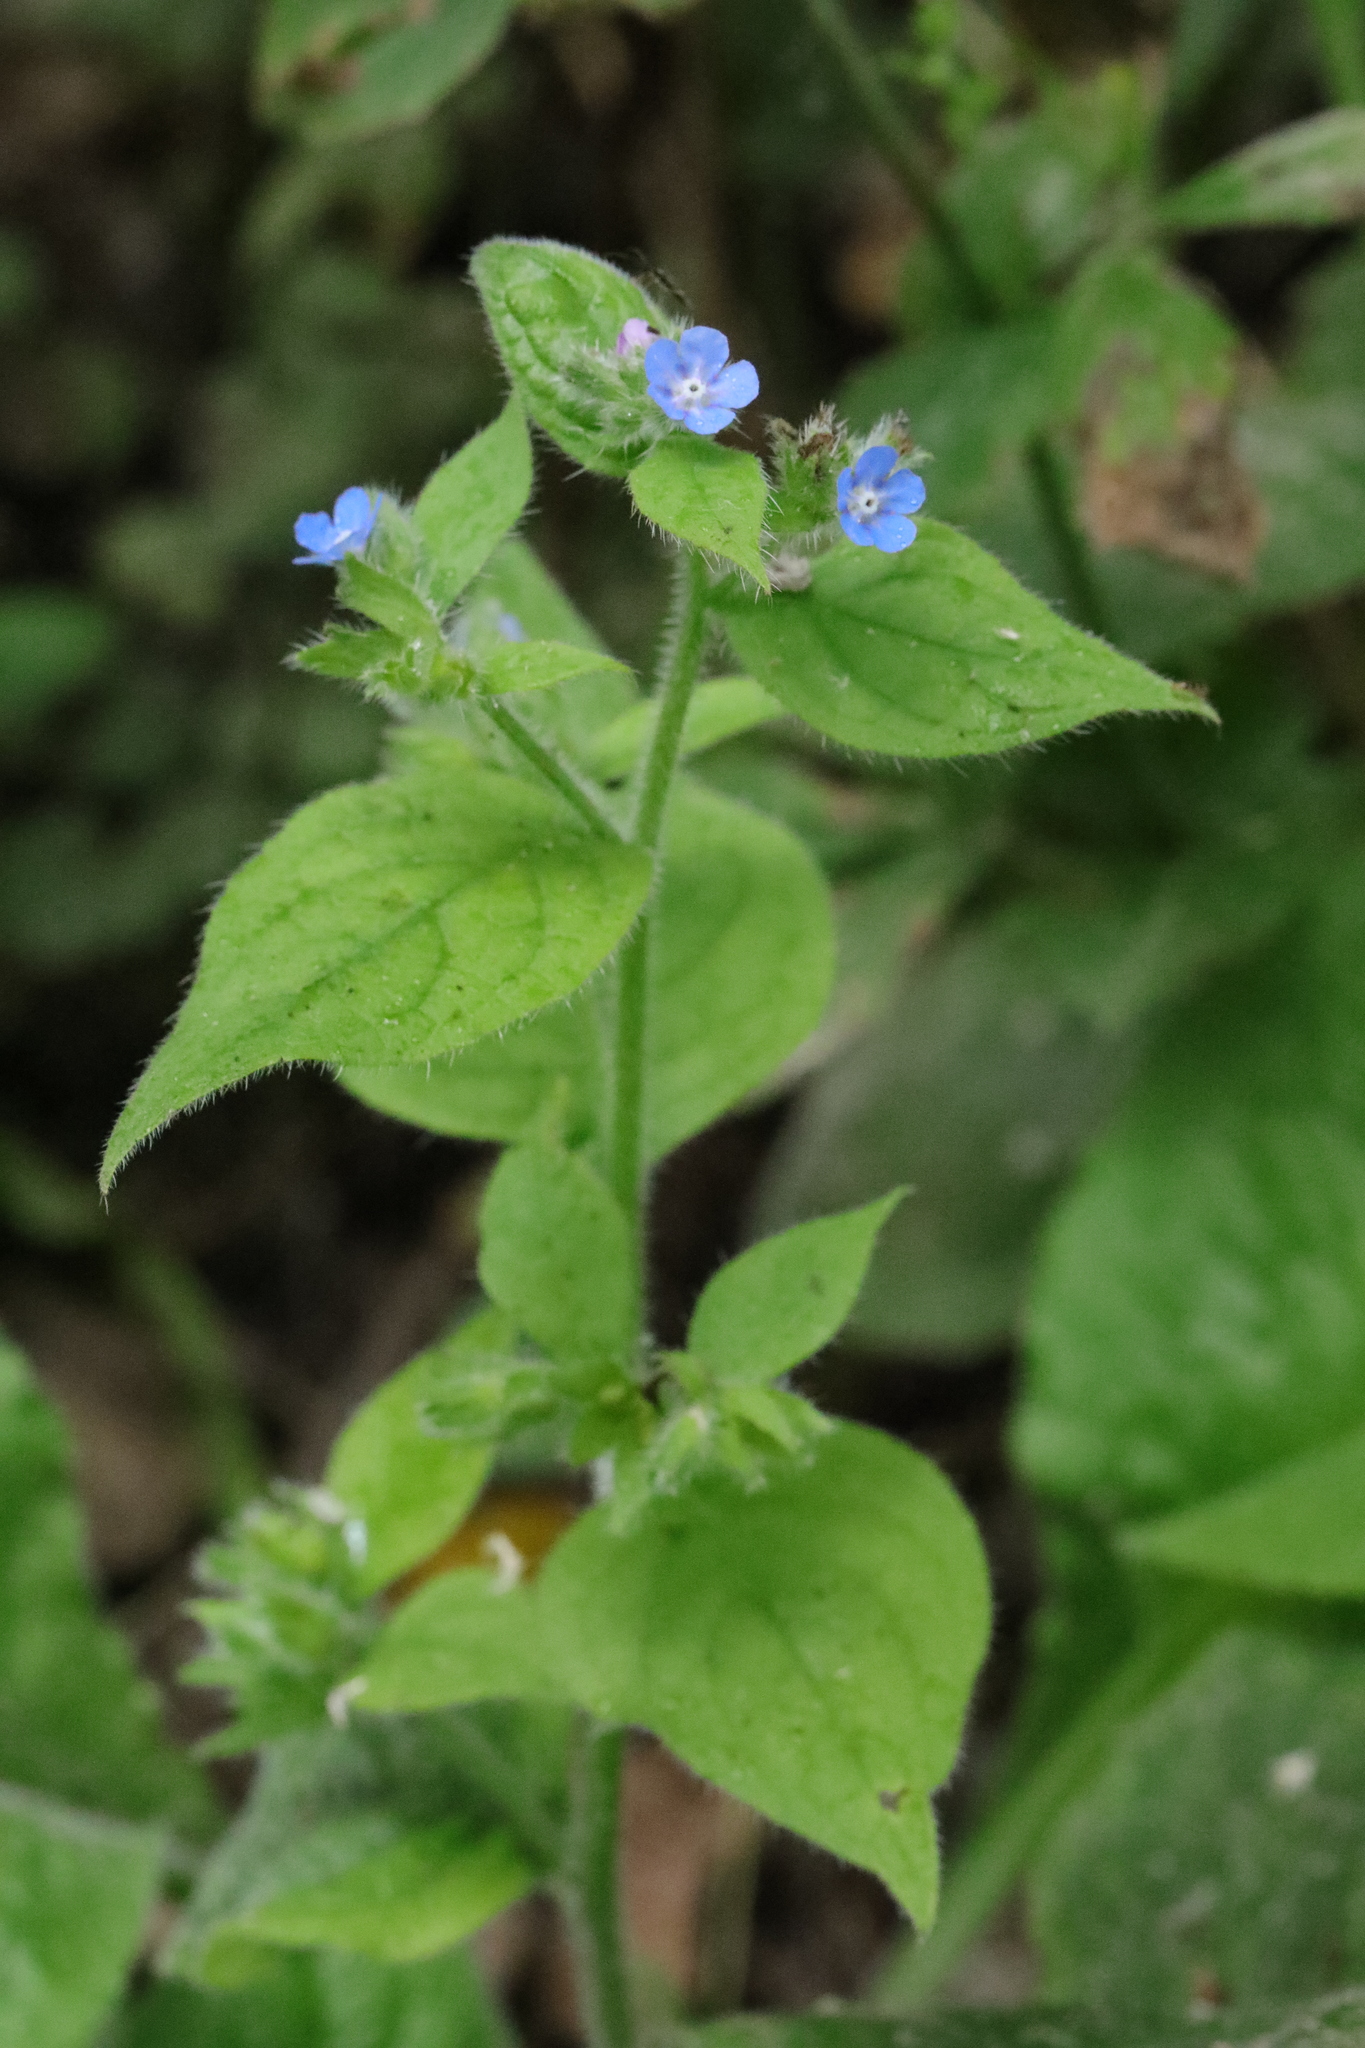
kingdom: Plantae
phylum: Tracheophyta
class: Magnoliopsida
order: Boraginales
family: Boraginaceae
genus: Pentaglottis
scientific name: Pentaglottis sempervirens
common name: Green alkanet
